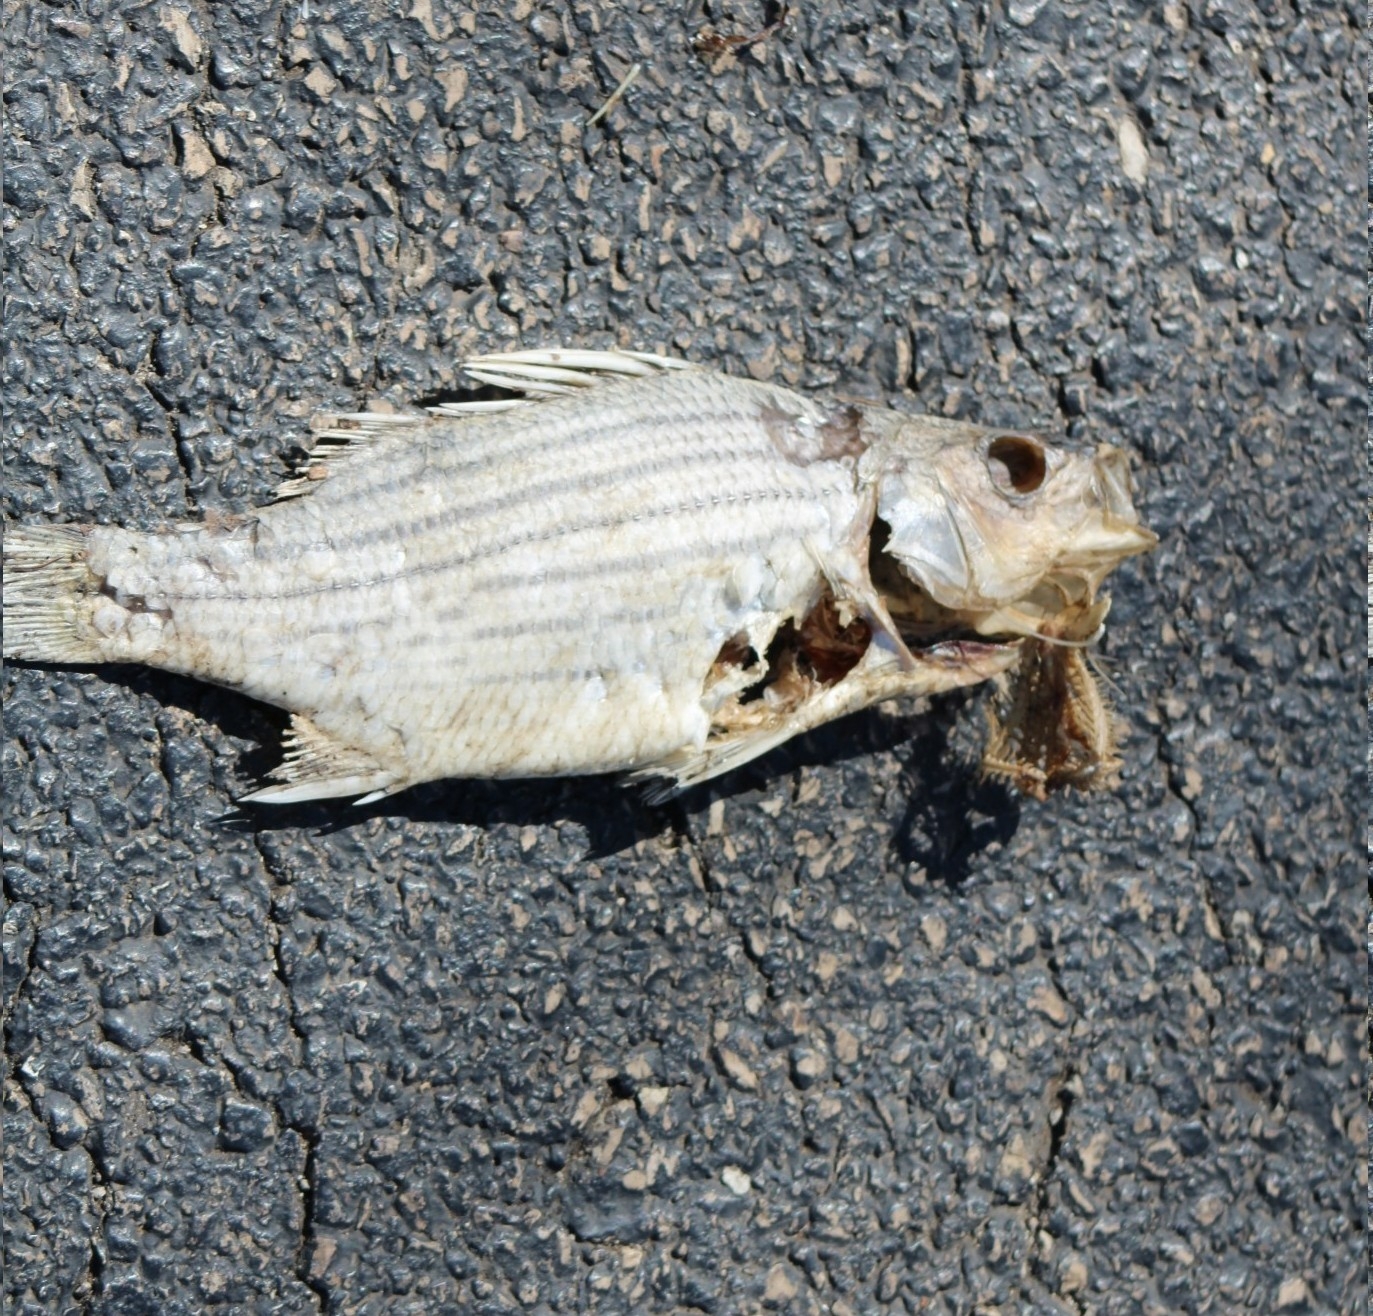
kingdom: Animalia
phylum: Chordata
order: Perciformes
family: Moronidae
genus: Morone
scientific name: Morone mississippiensis
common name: Yellow bass
